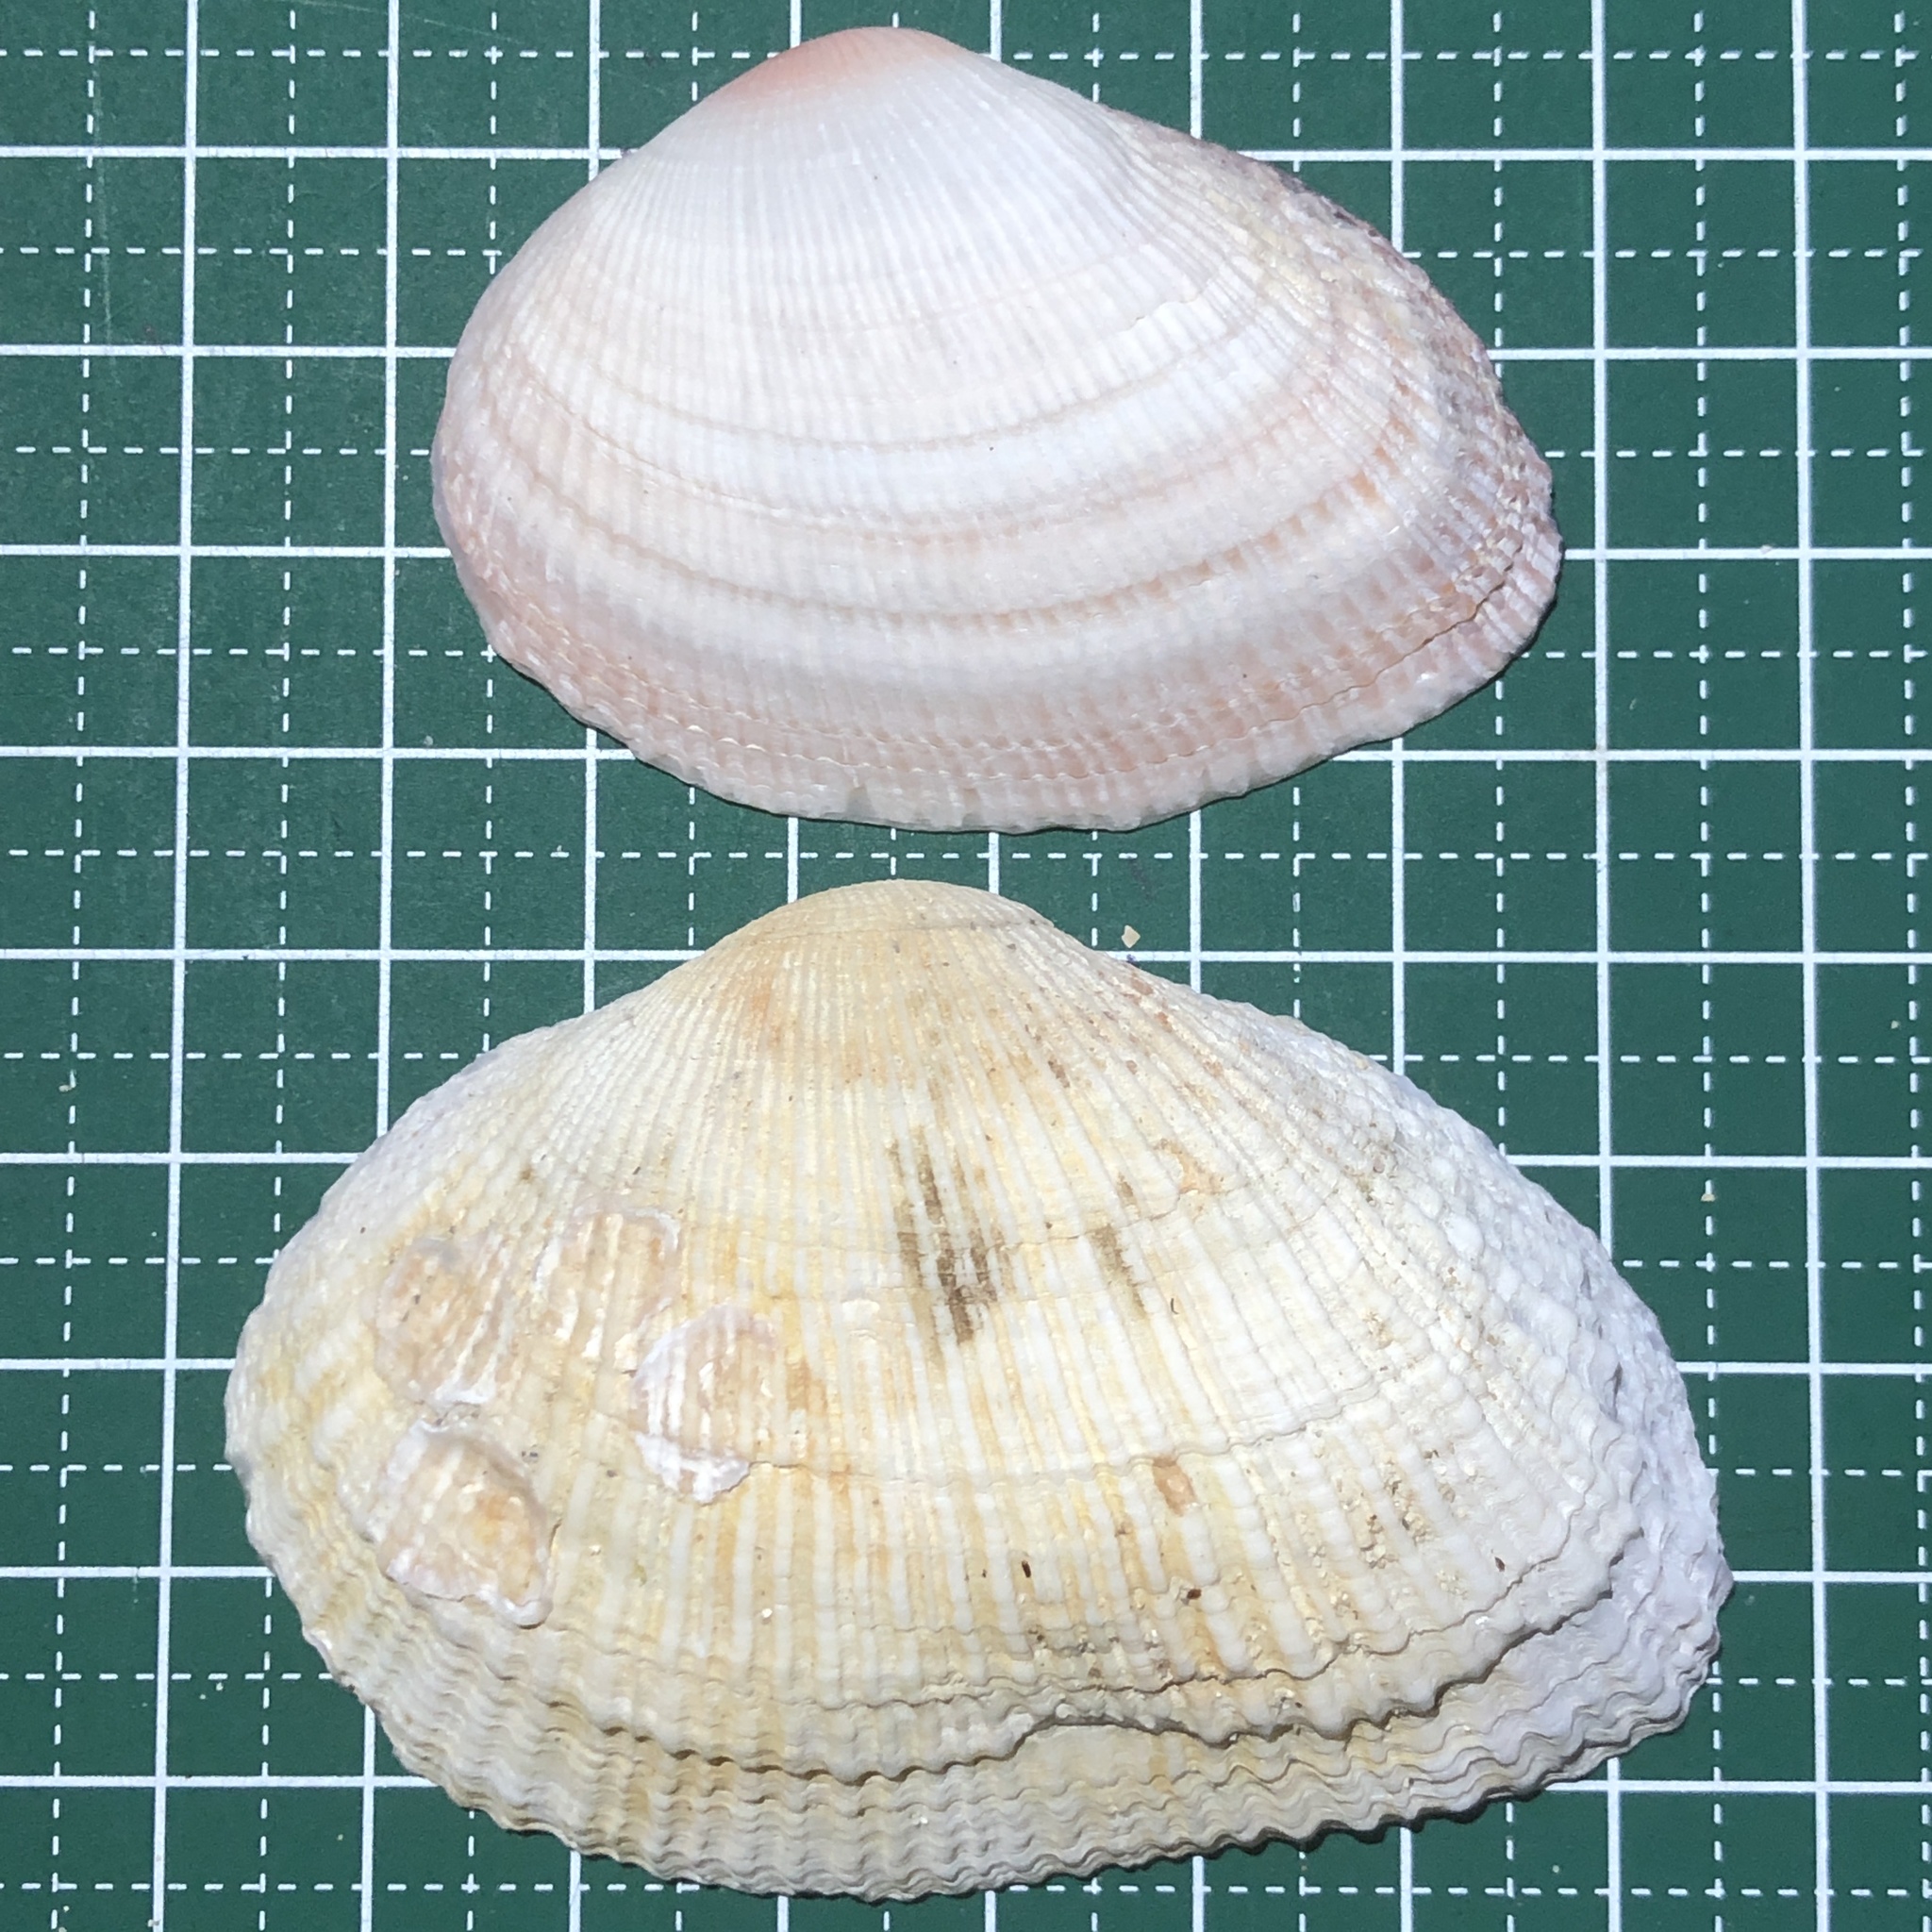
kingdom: Animalia
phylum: Mollusca
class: Bivalvia
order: Cardiida
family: Psammobiidae
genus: Asaphis
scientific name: Asaphis violascens
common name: Pacific asaphis
